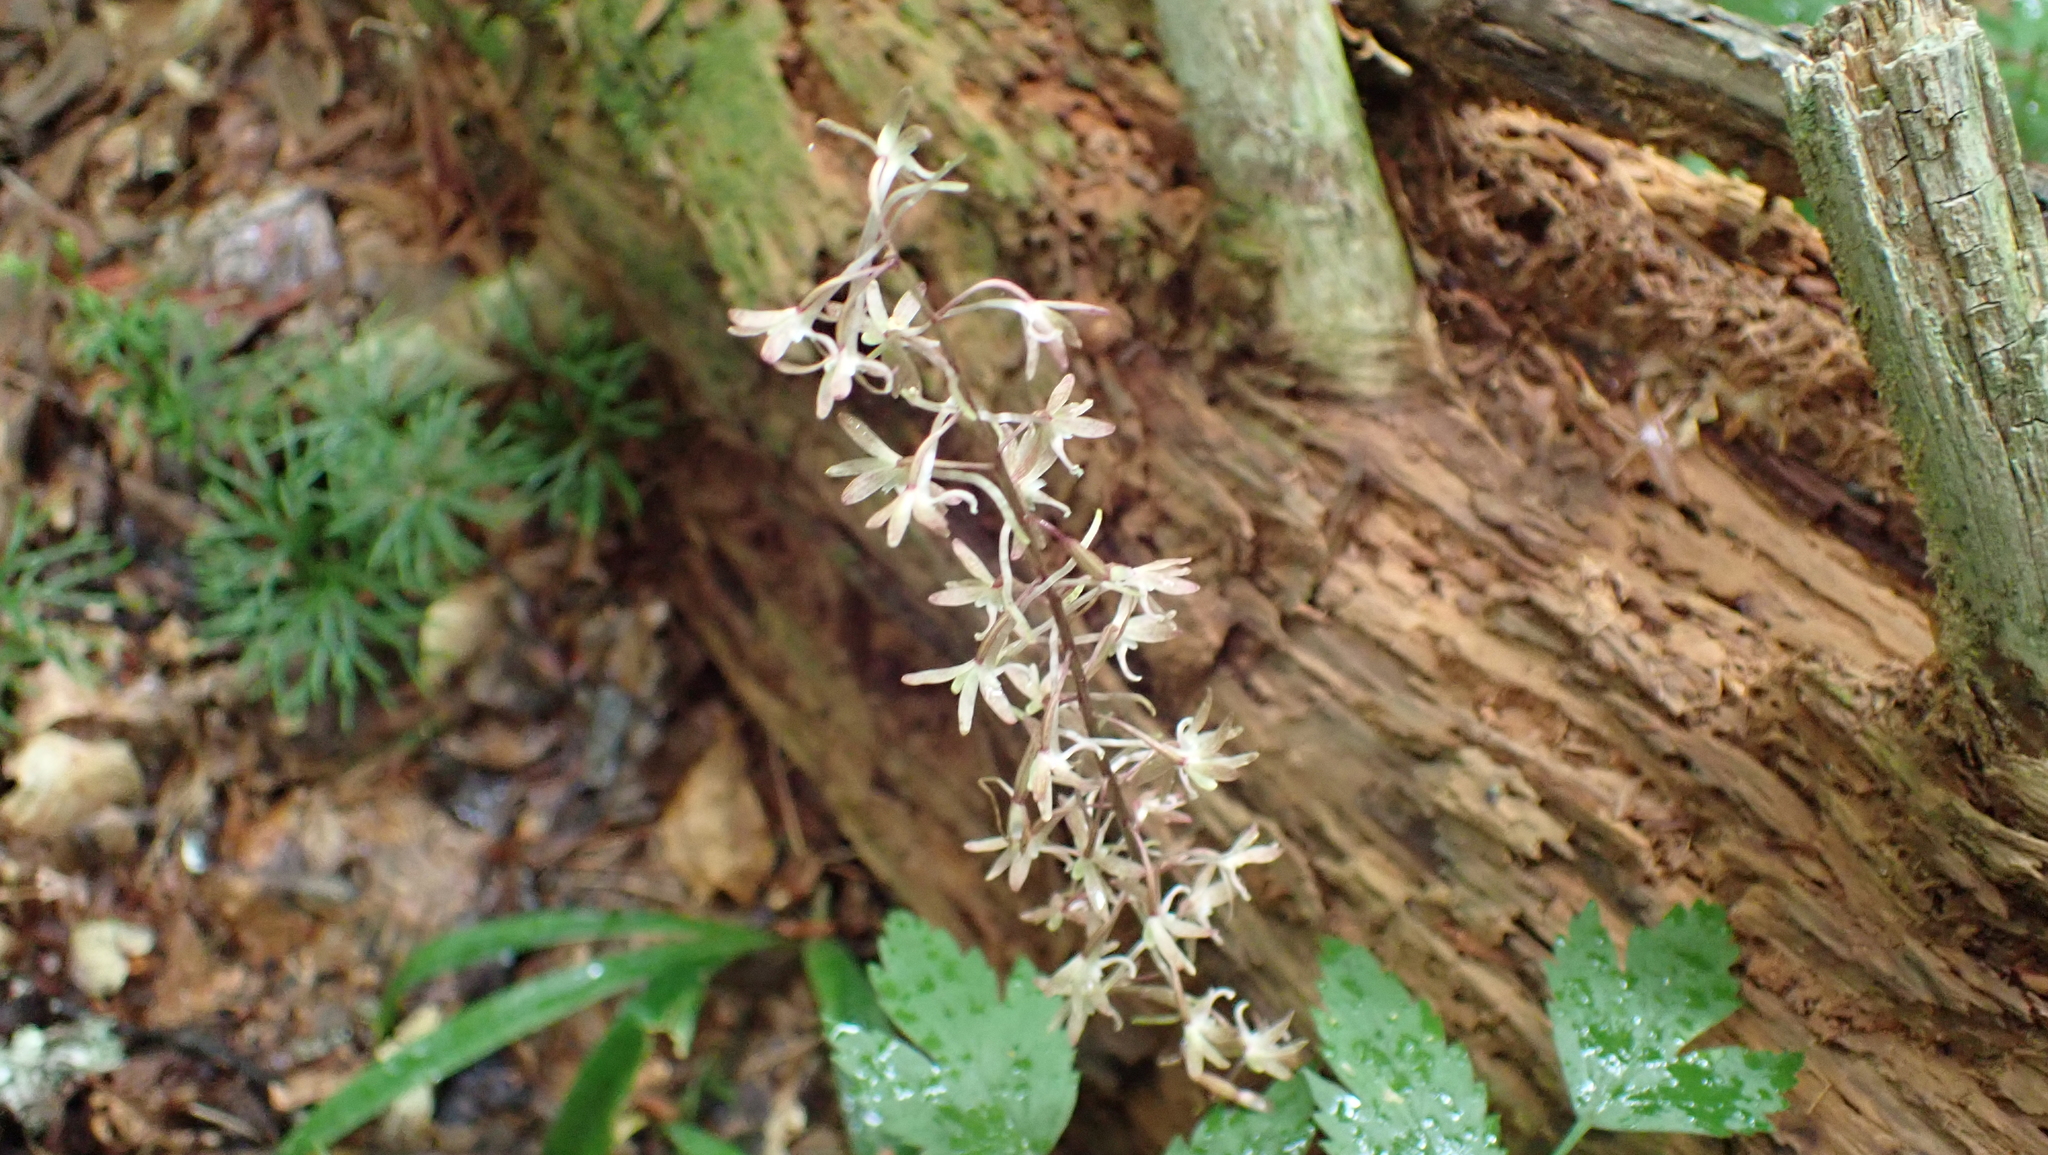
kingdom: Plantae
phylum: Tracheophyta
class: Liliopsida
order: Asparagales
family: Orchidaceae
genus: Tipularia
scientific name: Tipularia discolor
